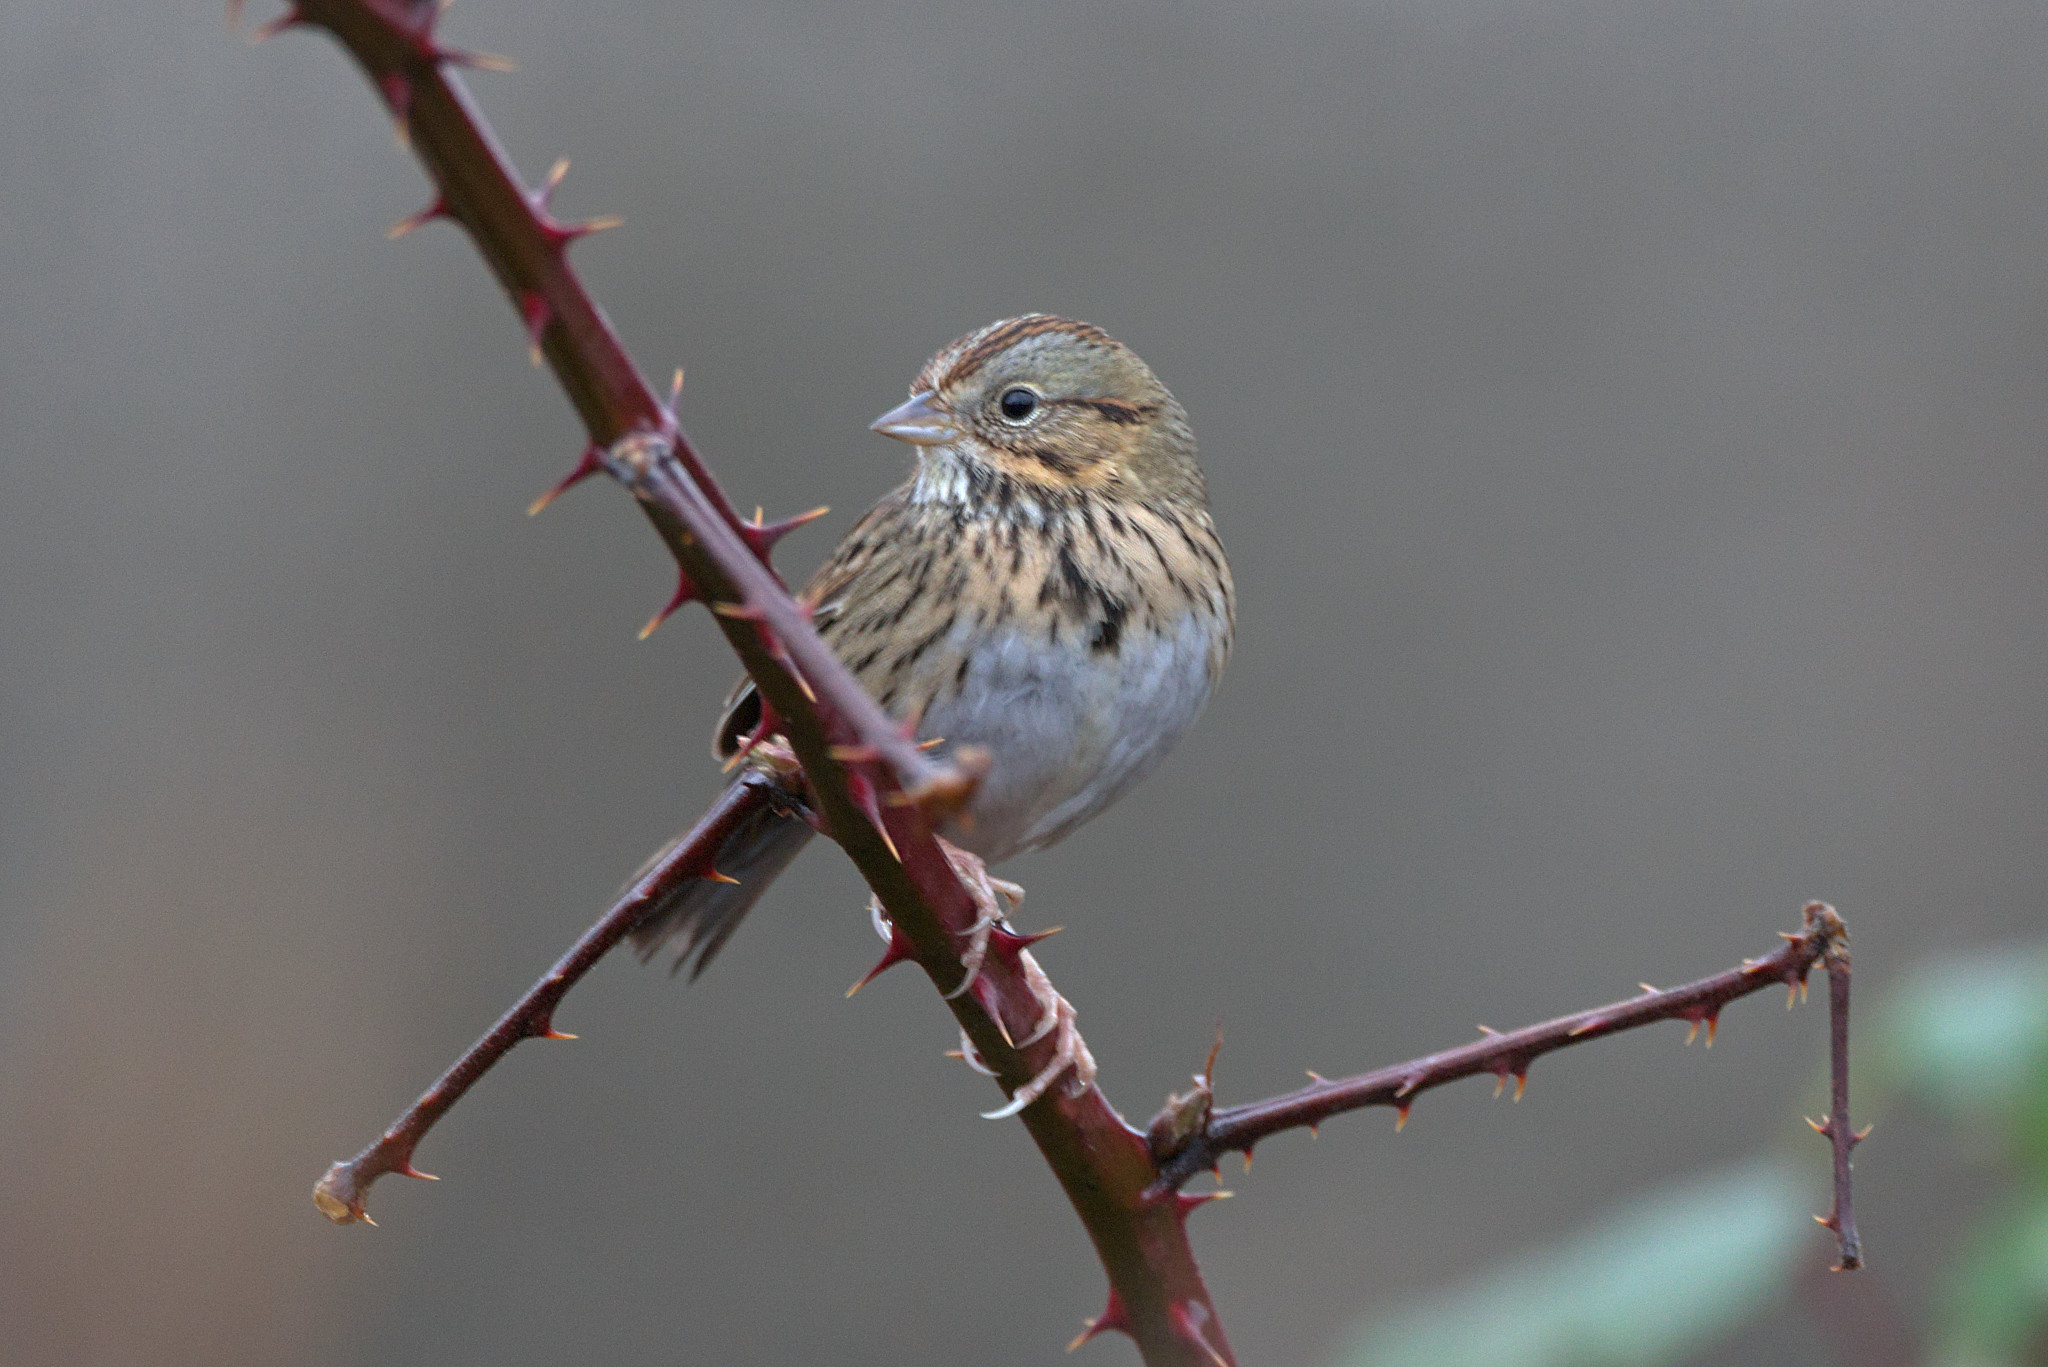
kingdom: Animalia
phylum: Chordata
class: Aves
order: Passeriformes
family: Passerellidae
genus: Melospiza
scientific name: Melospiza lincolnii
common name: Lincoln's sparrow
